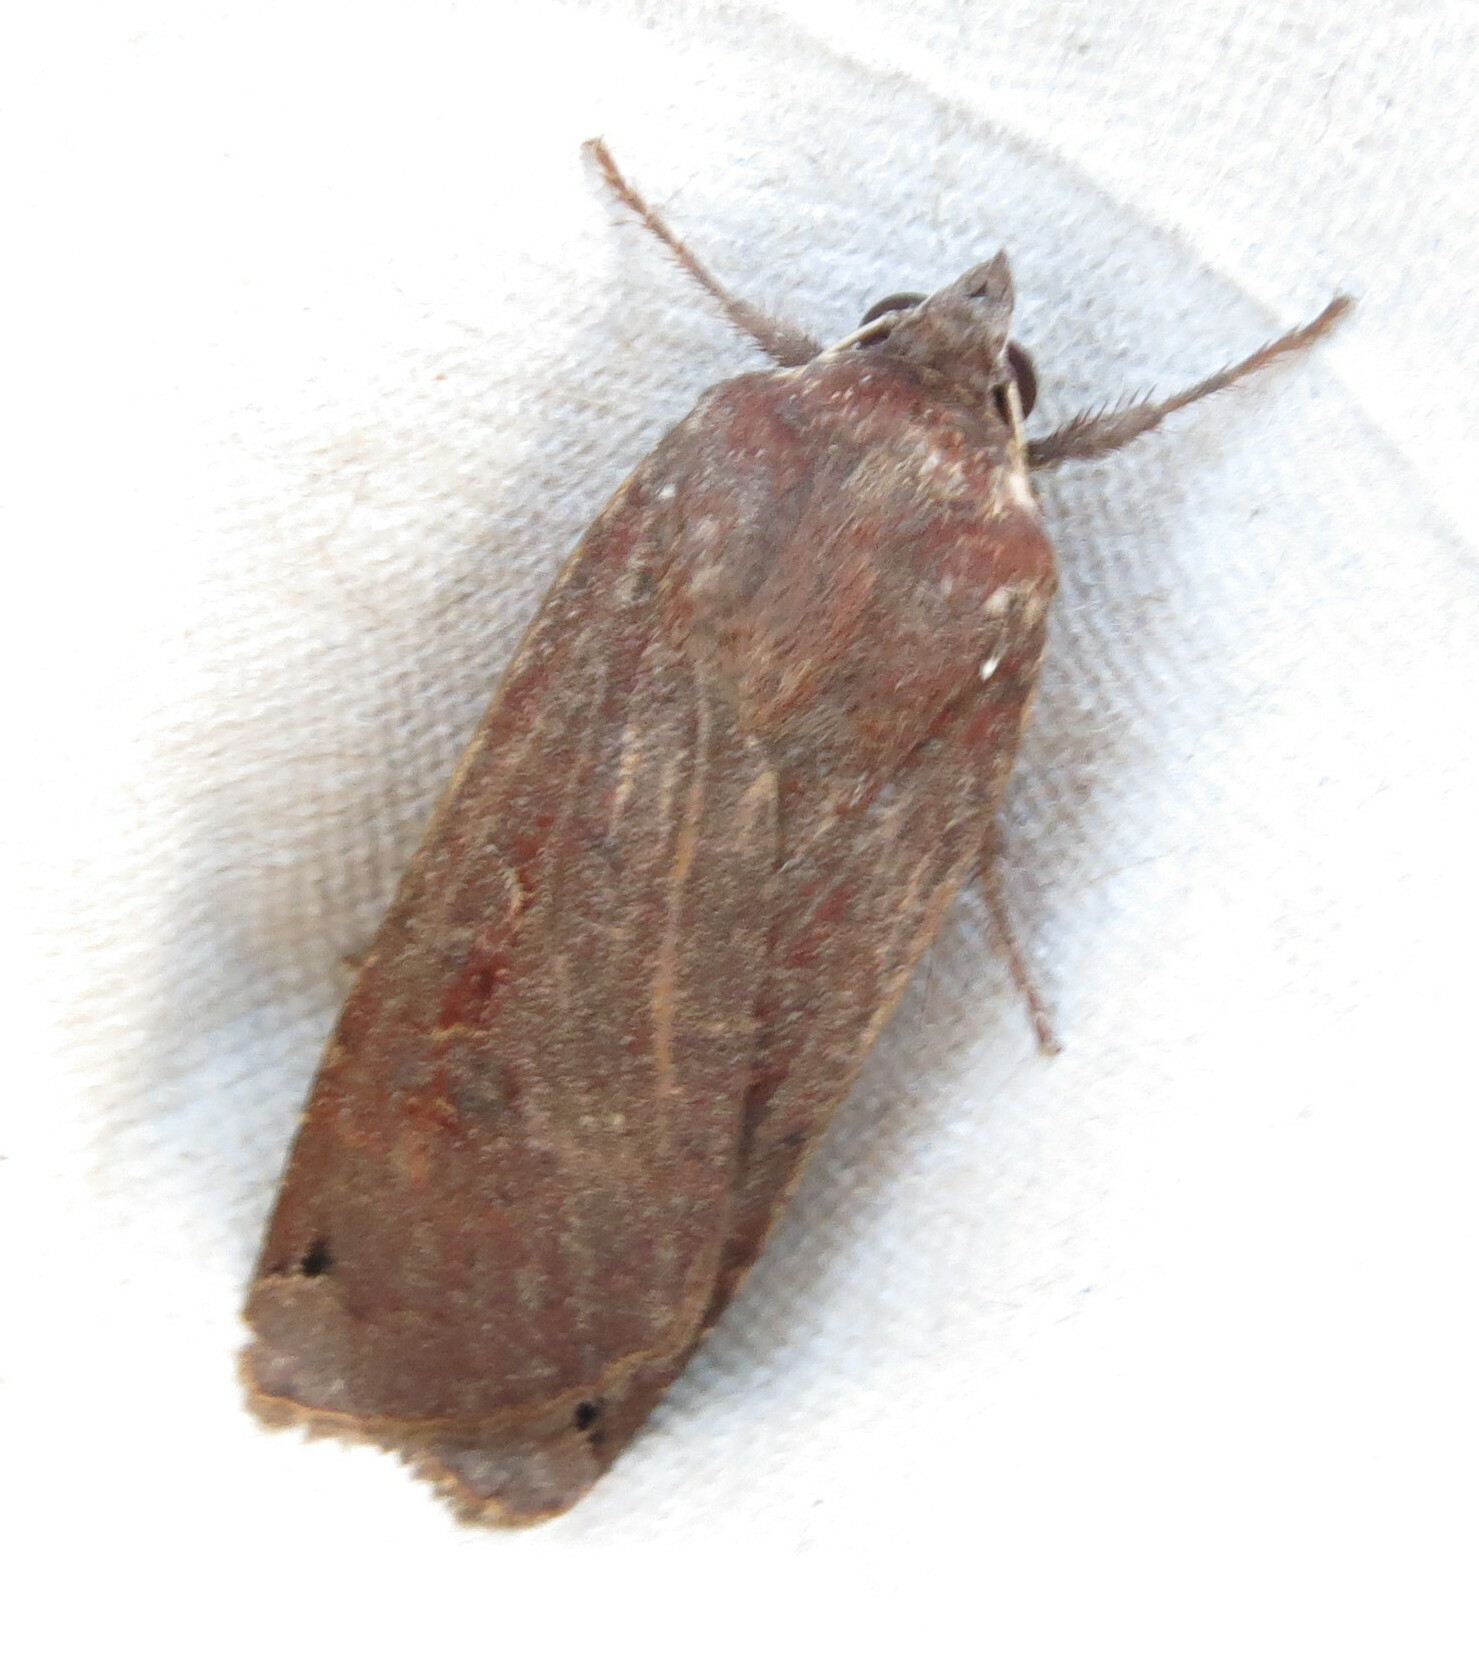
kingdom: Animalia
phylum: Arthropoda
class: Insecta
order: Lepidoptera
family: Noctuidae
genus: Noctua
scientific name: Noctua pronuba
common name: Large yellow underwing
